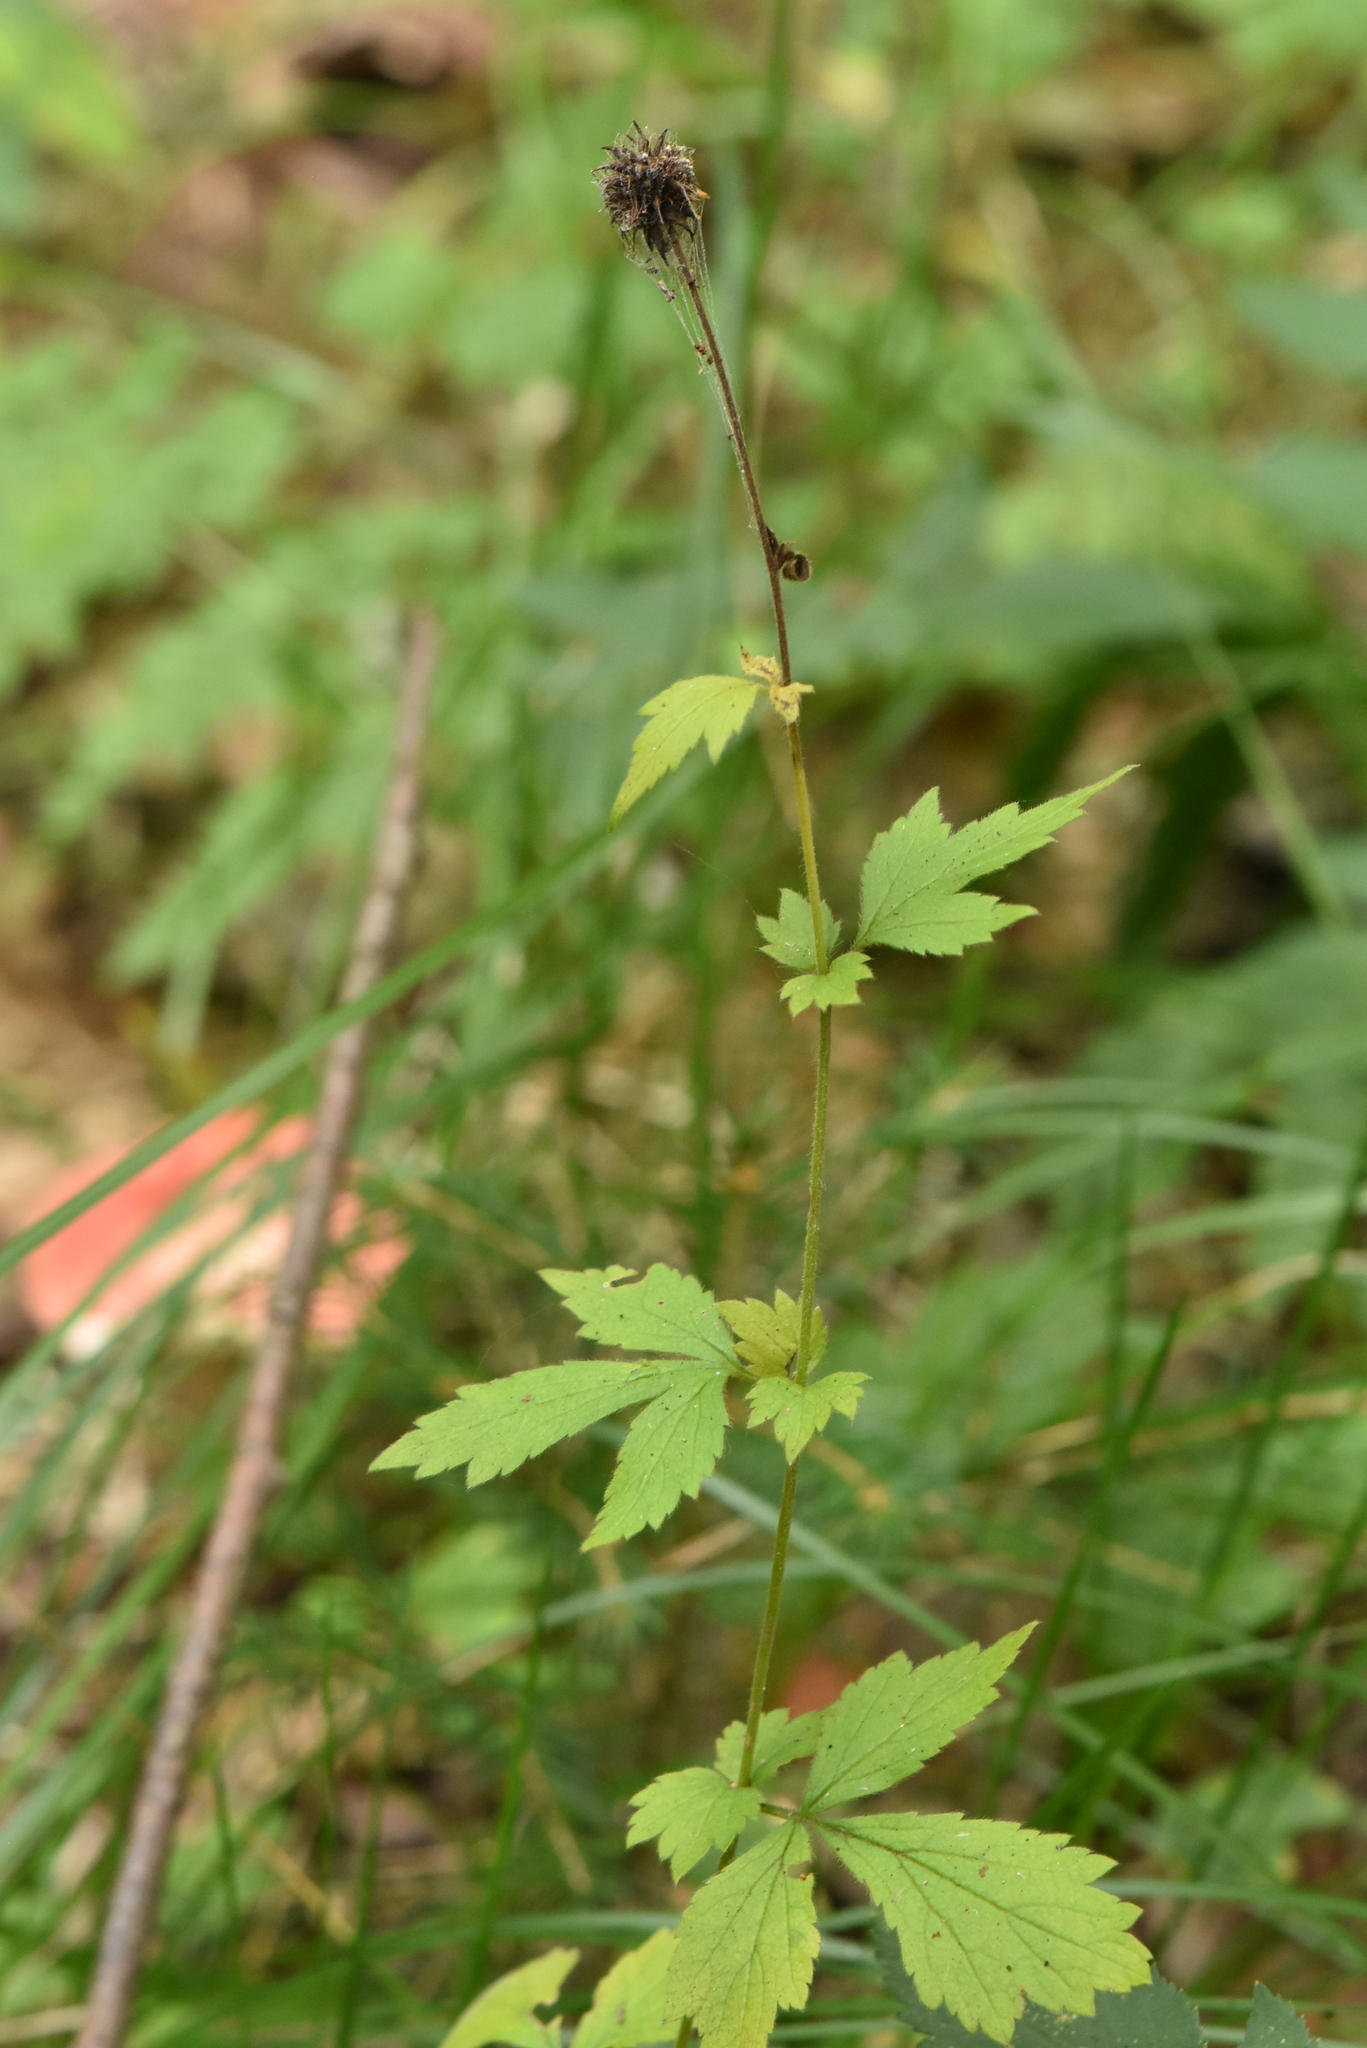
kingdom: Plantae
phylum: Tracheophyta
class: Magnoliopsida
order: Rosales
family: Rosaceae
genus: Geum
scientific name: Geum urbanum
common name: Wood avens
